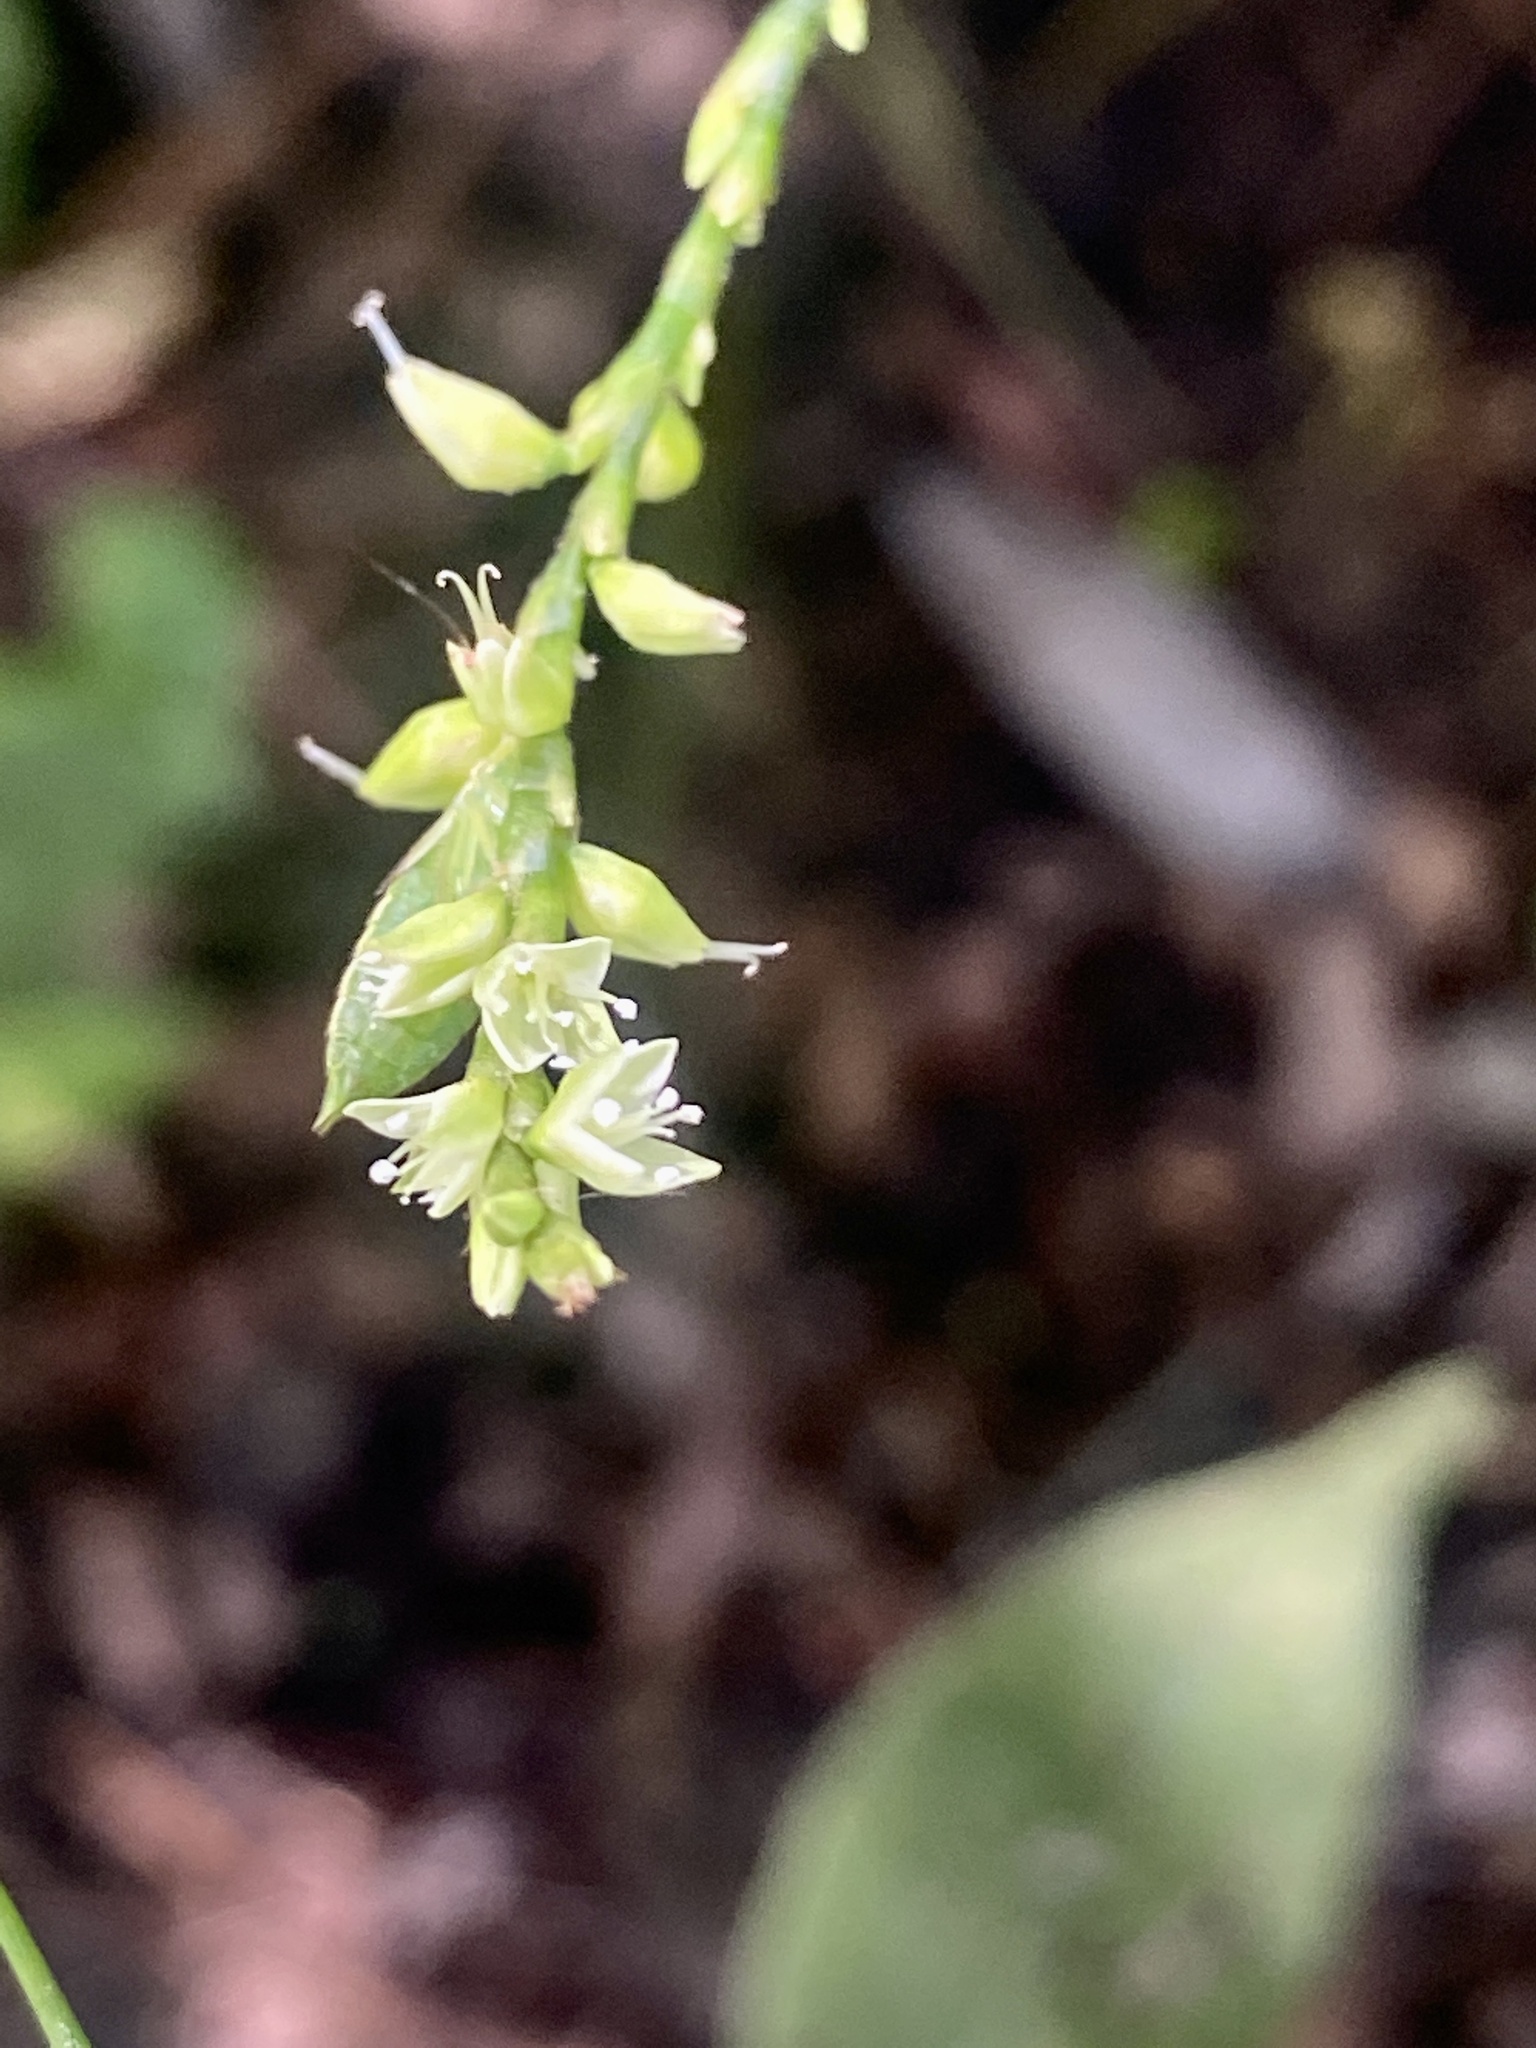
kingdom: Plantae
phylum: Tracheophyta
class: Magnoliopsida
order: Caryophyllales
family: Polygonaceae
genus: Persicaria
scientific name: Persicaria virginiana
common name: Jumpseed
